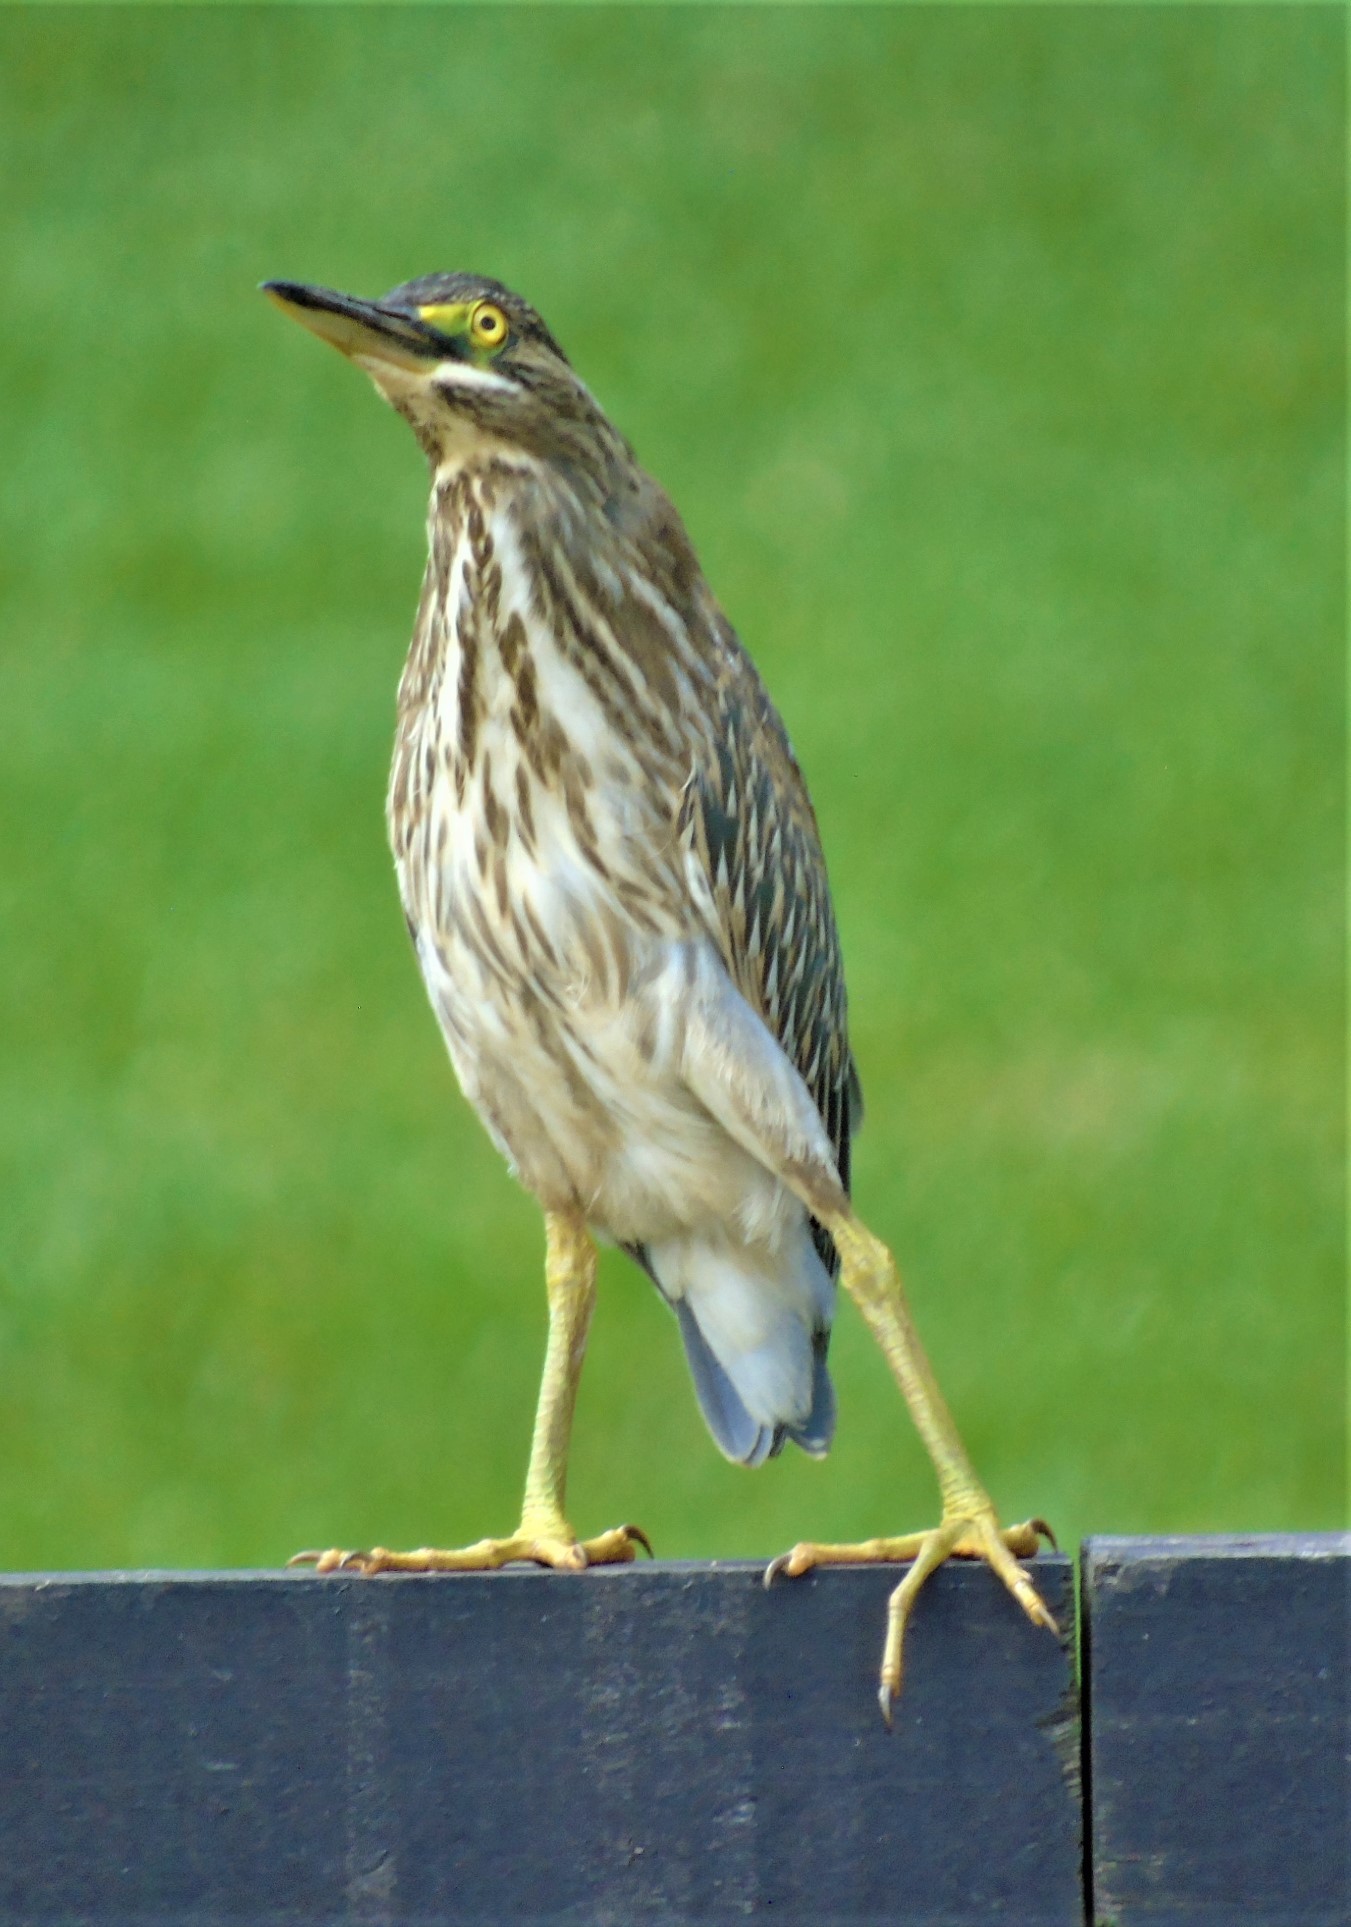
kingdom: Animalia
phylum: Chordata
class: Aves
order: Pelecaniformes
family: Ardeidae
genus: Butorides
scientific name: Butorides striata
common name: Striated heron
